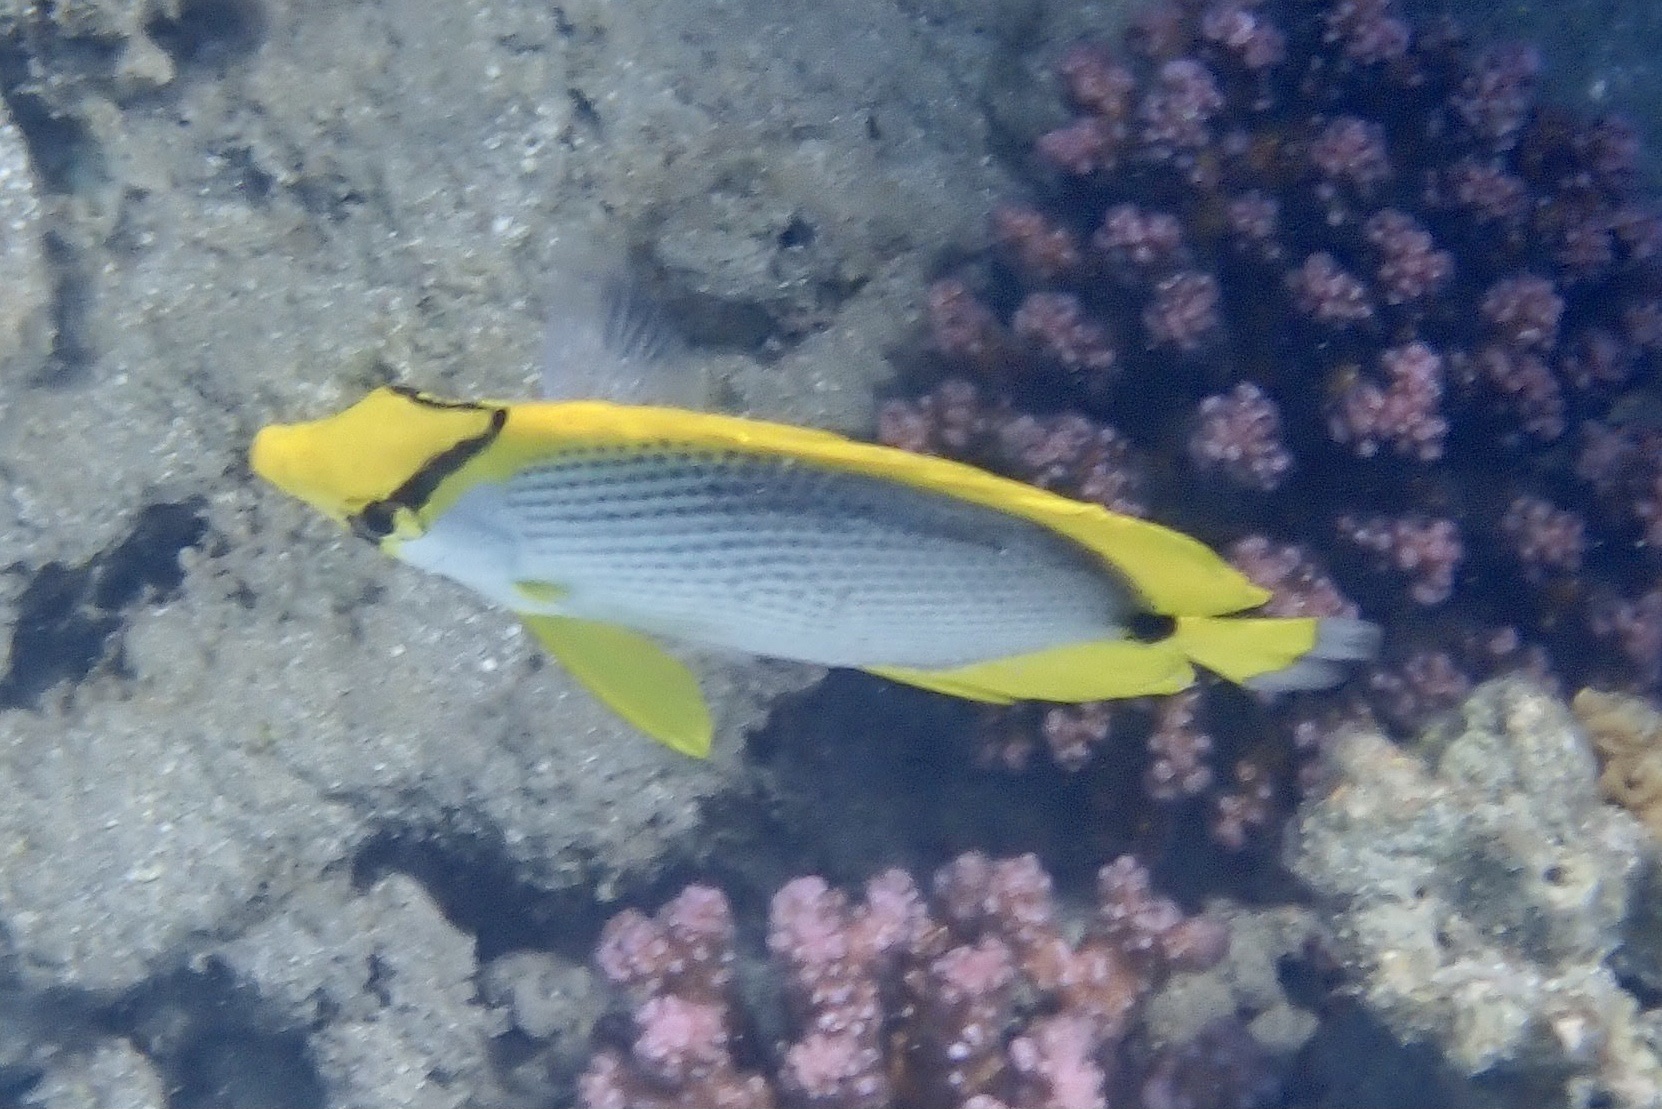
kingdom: Animalia
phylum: Chordata
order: Perciformes
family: Chaetodontidae
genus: Chaetodon
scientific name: Chaetodon melannotus
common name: Blackback butterflyfish
